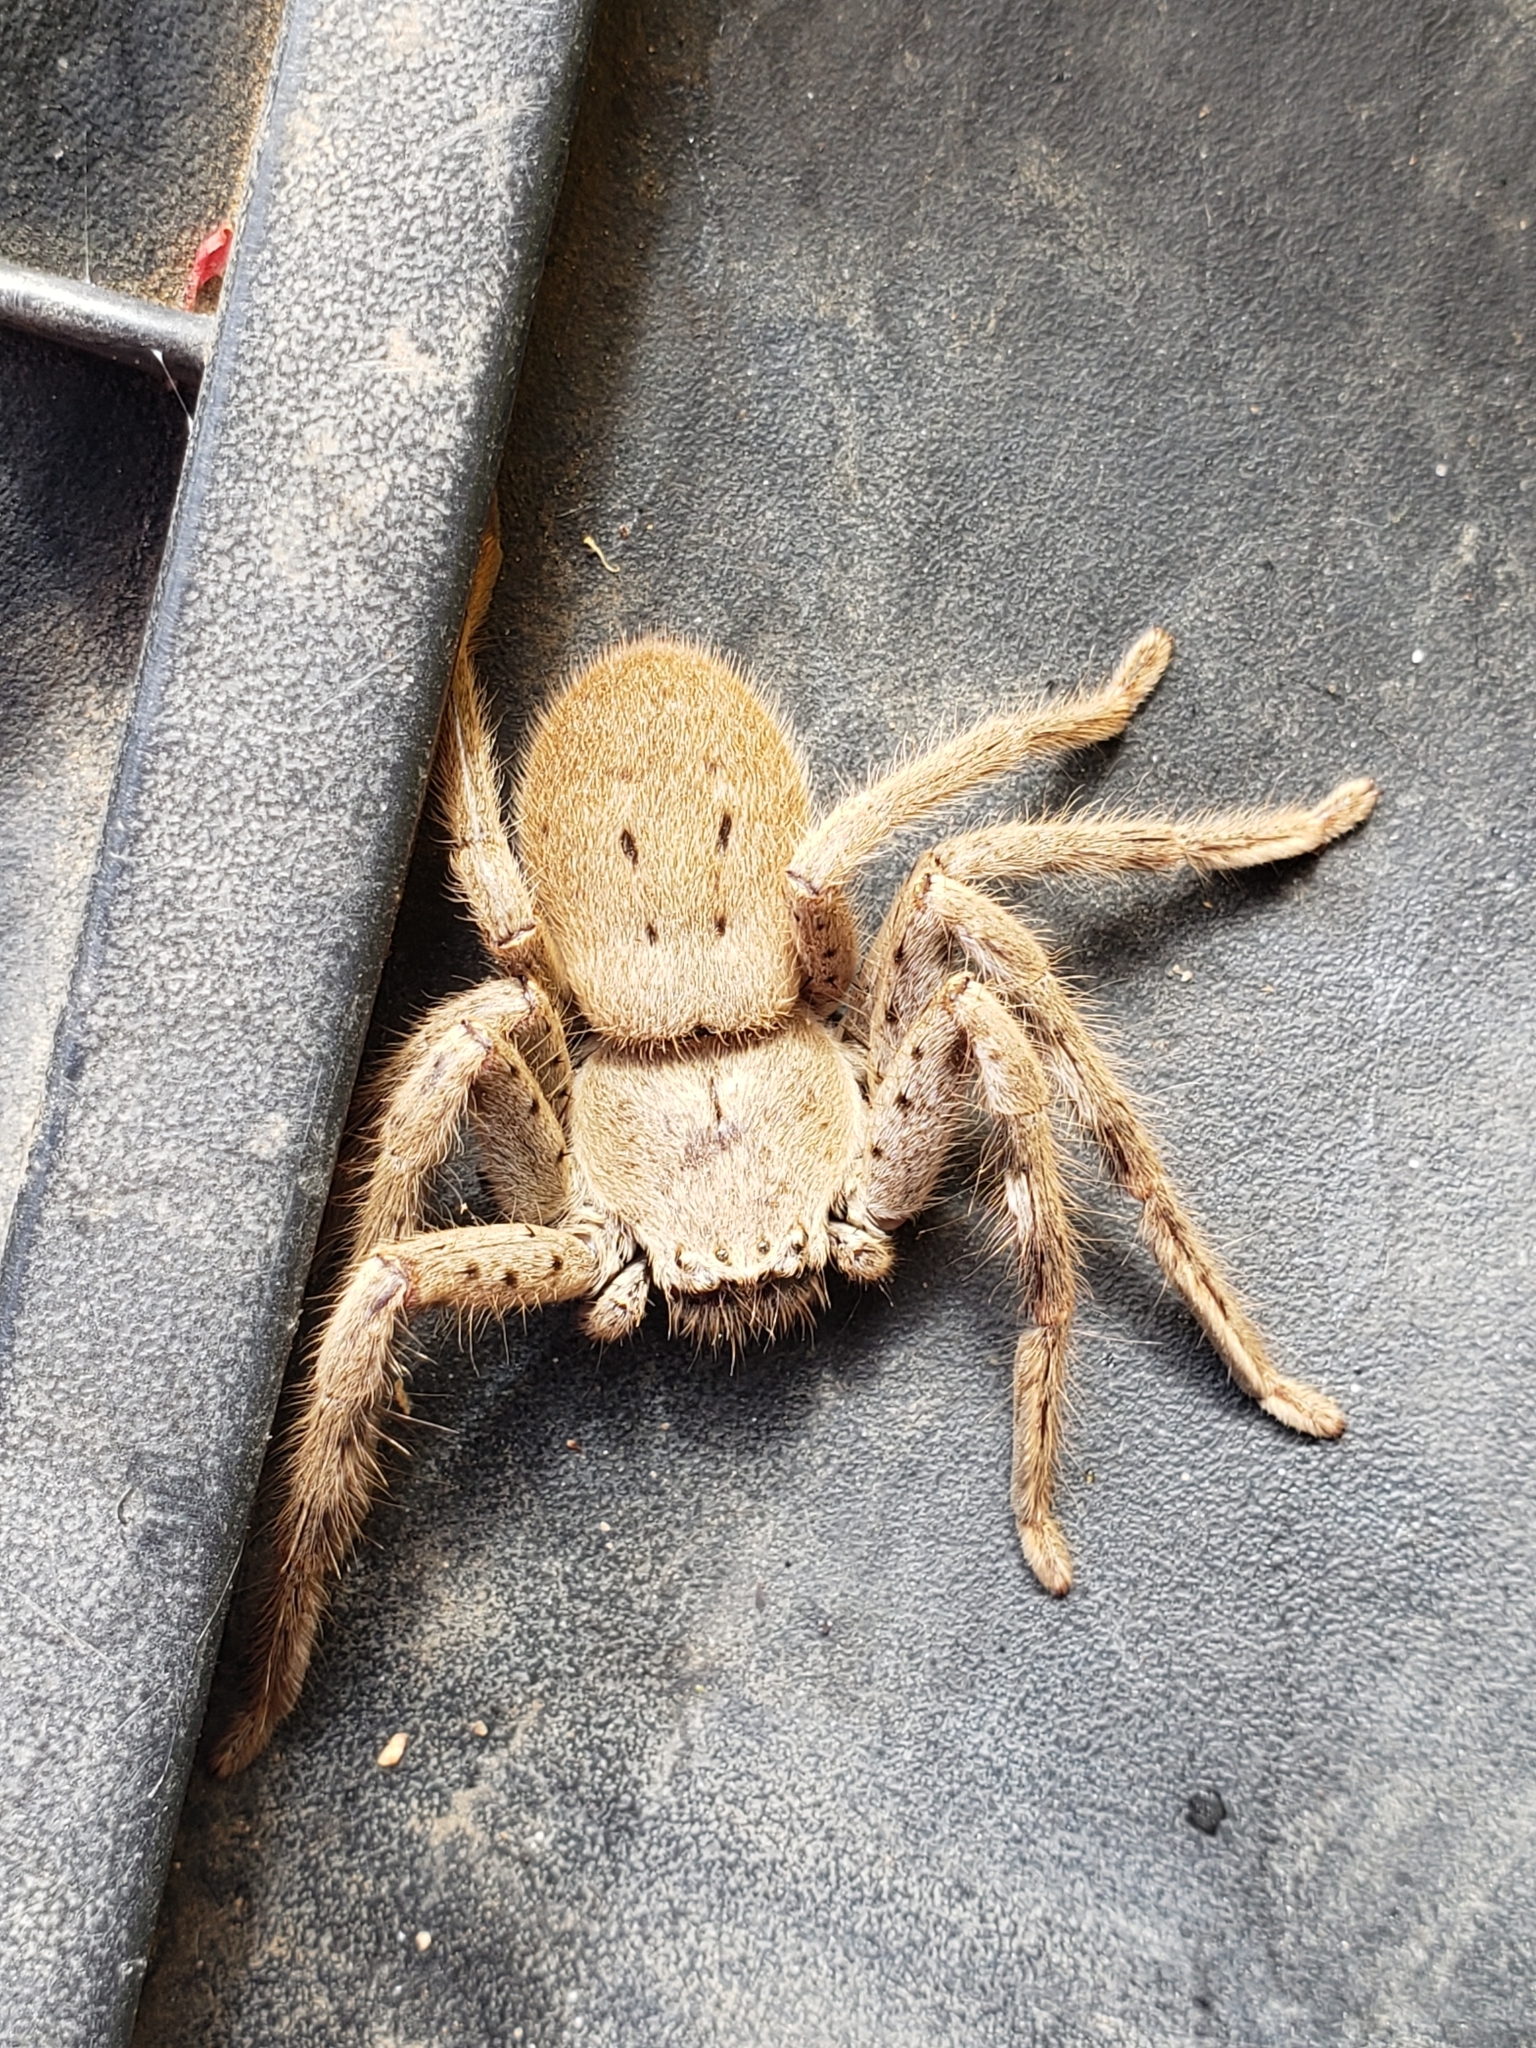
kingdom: Animalia
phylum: Arthropoda
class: Arachnida
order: Araneae
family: Sparassidae
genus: Isopedella
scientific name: Isopedella leai
